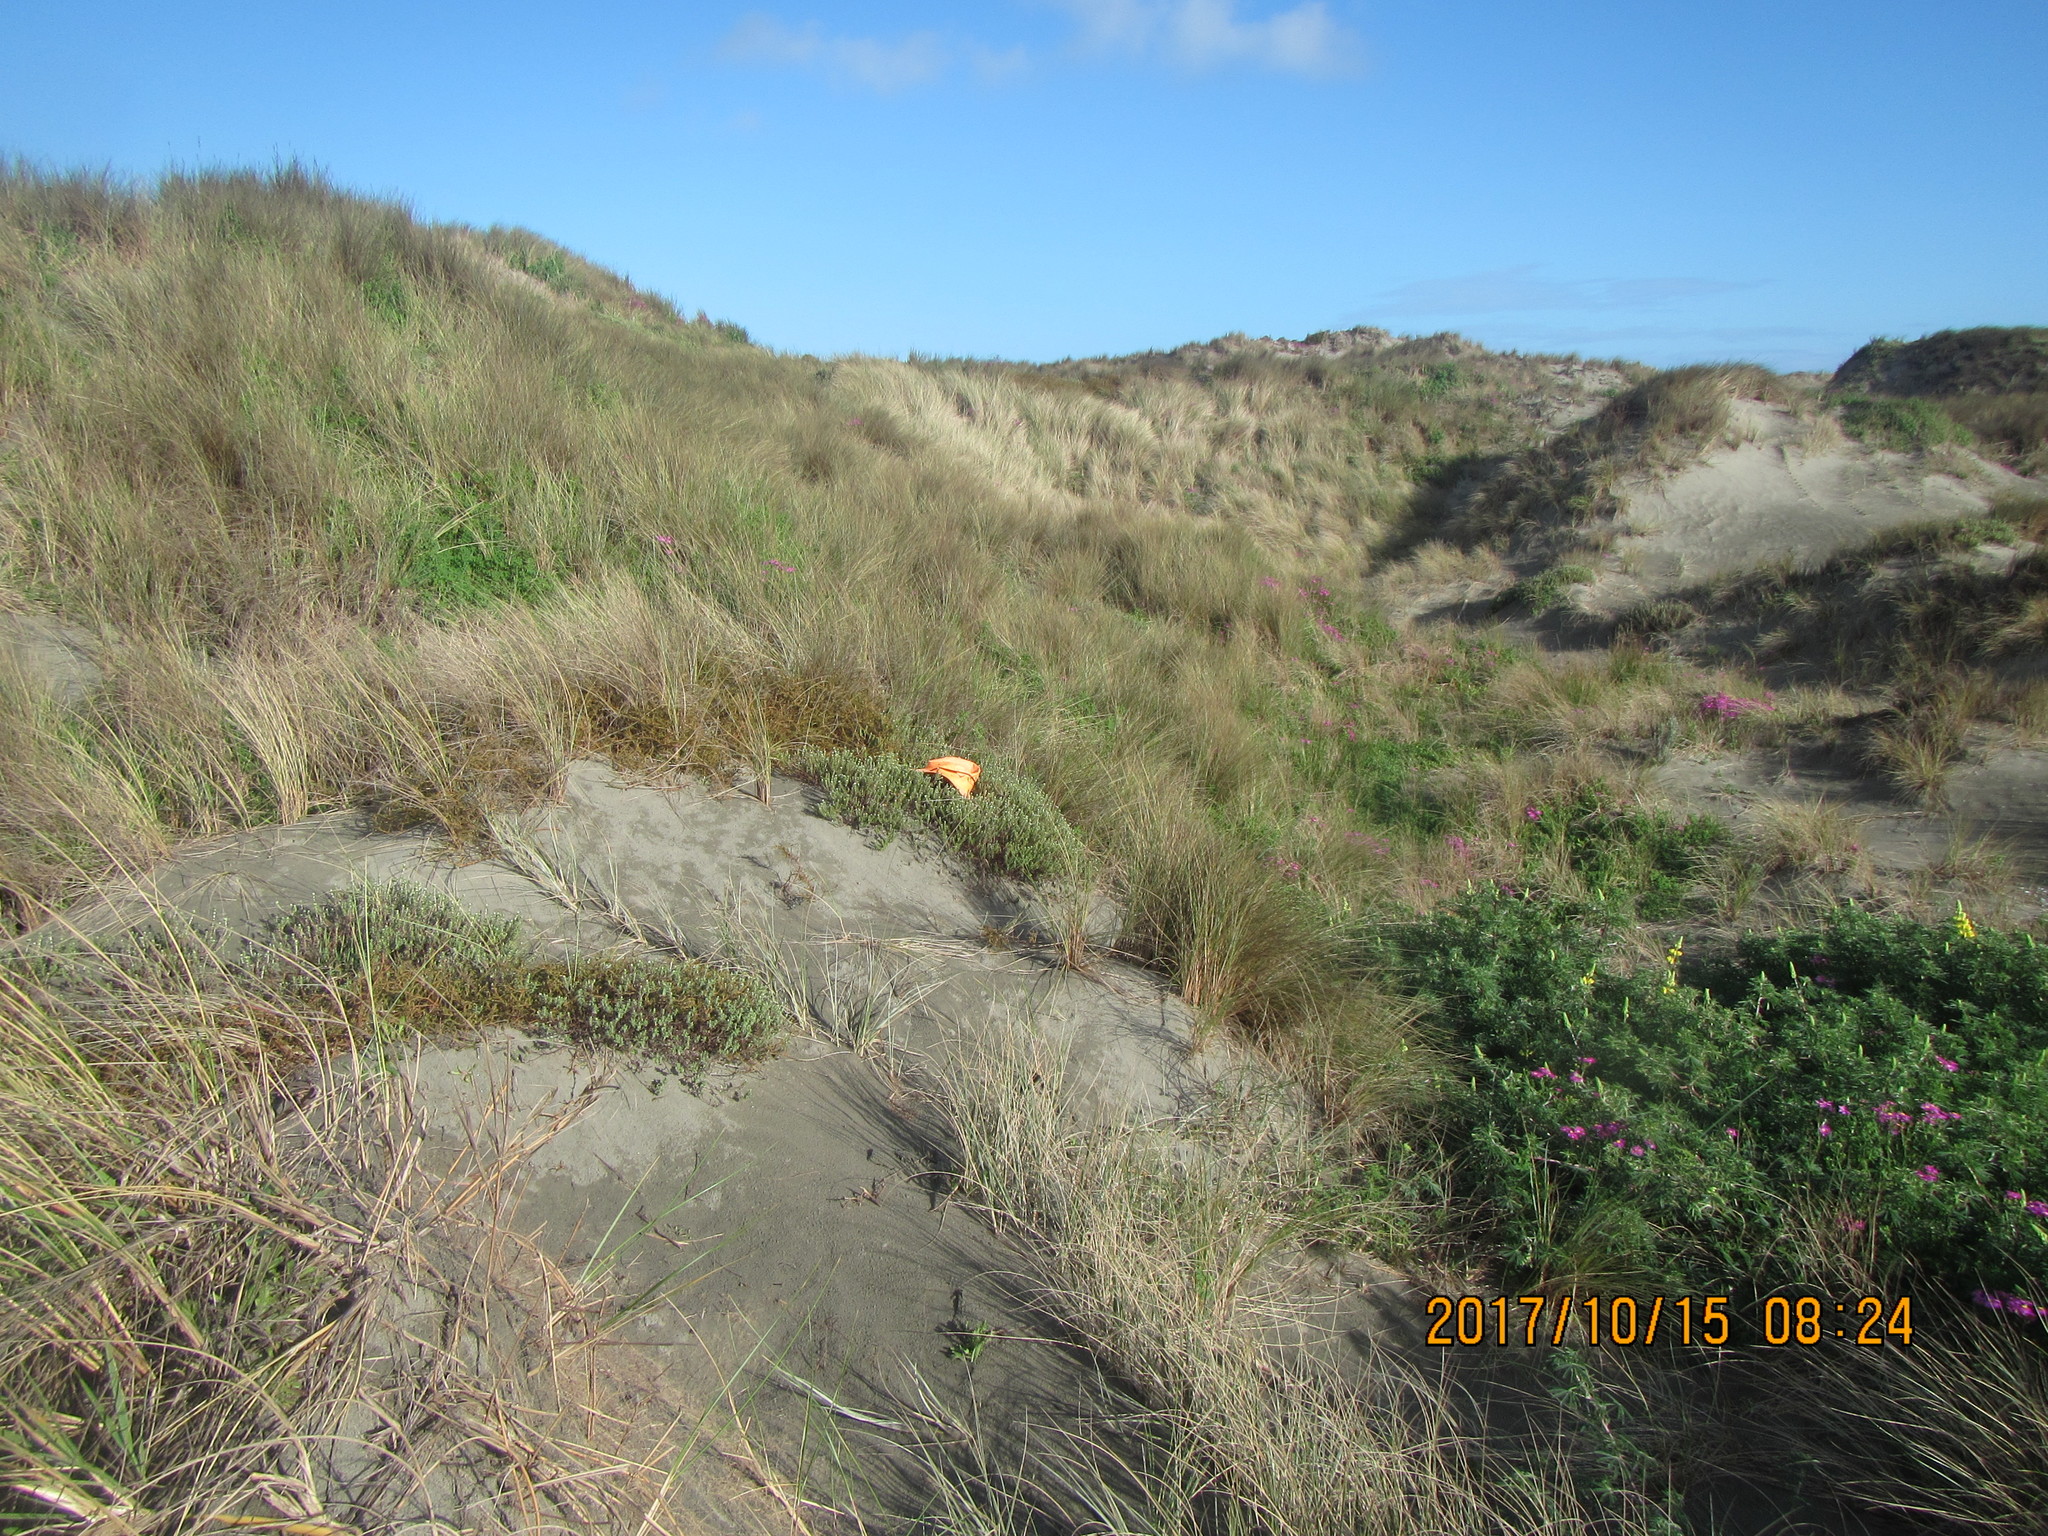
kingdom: Plantae
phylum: Tracheophyta
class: Magnoliopsida
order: Malvales
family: Thymelaeaceae
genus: Pimelea
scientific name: Pimelea villosa
